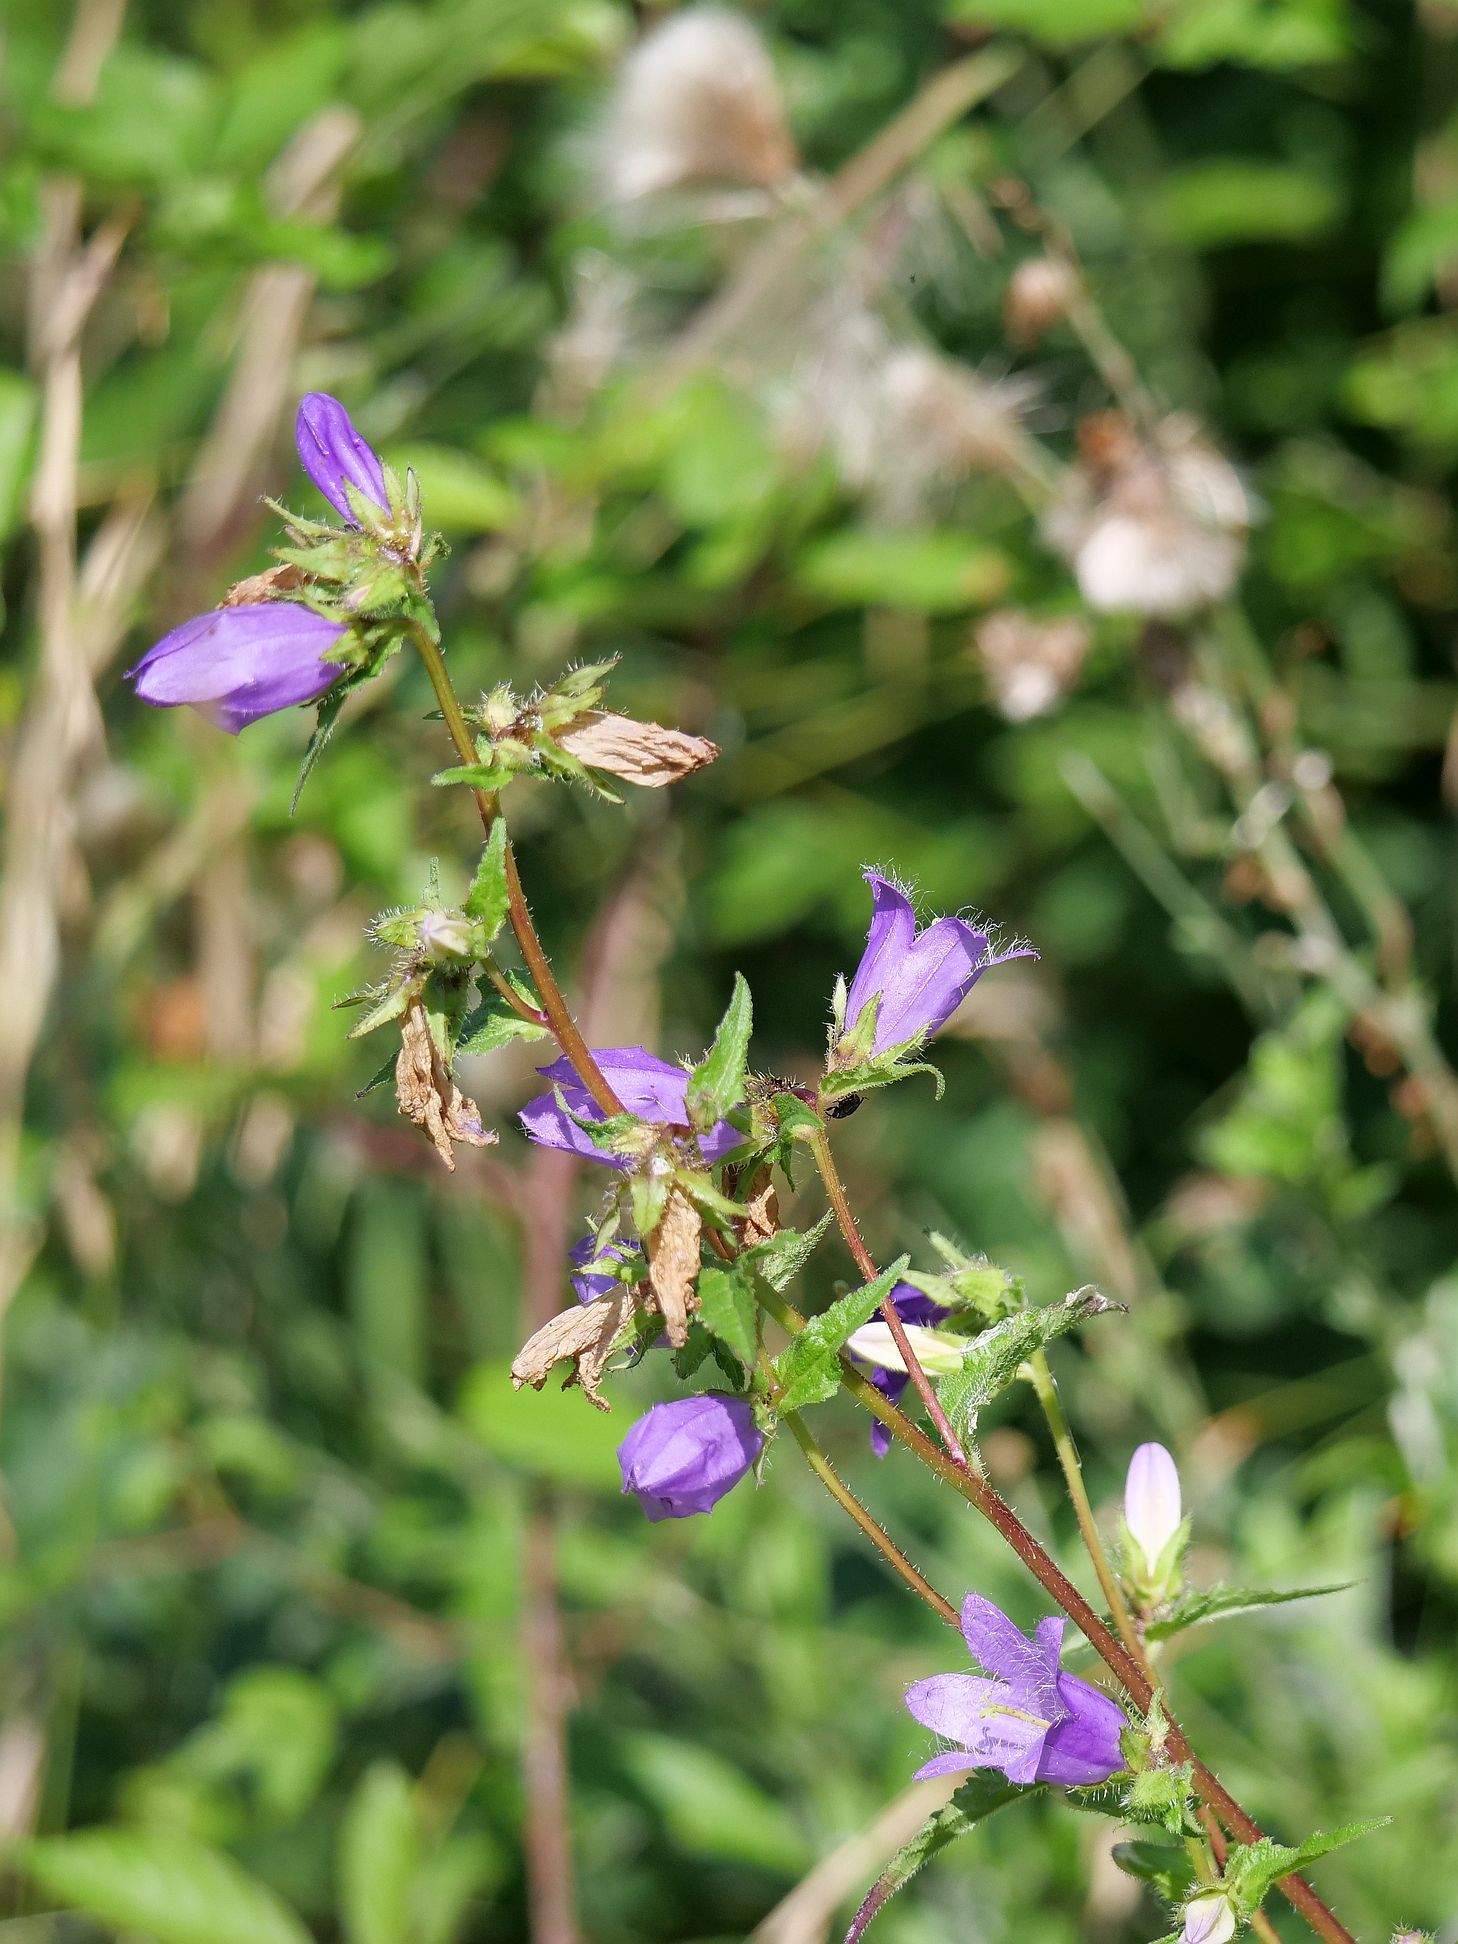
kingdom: Plantae
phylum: Tracheophyta
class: Magnoliopsida
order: Asterales
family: Campanulaceae
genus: Campanula
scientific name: Campanula trachelium
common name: Nettle-leaved bellflower
